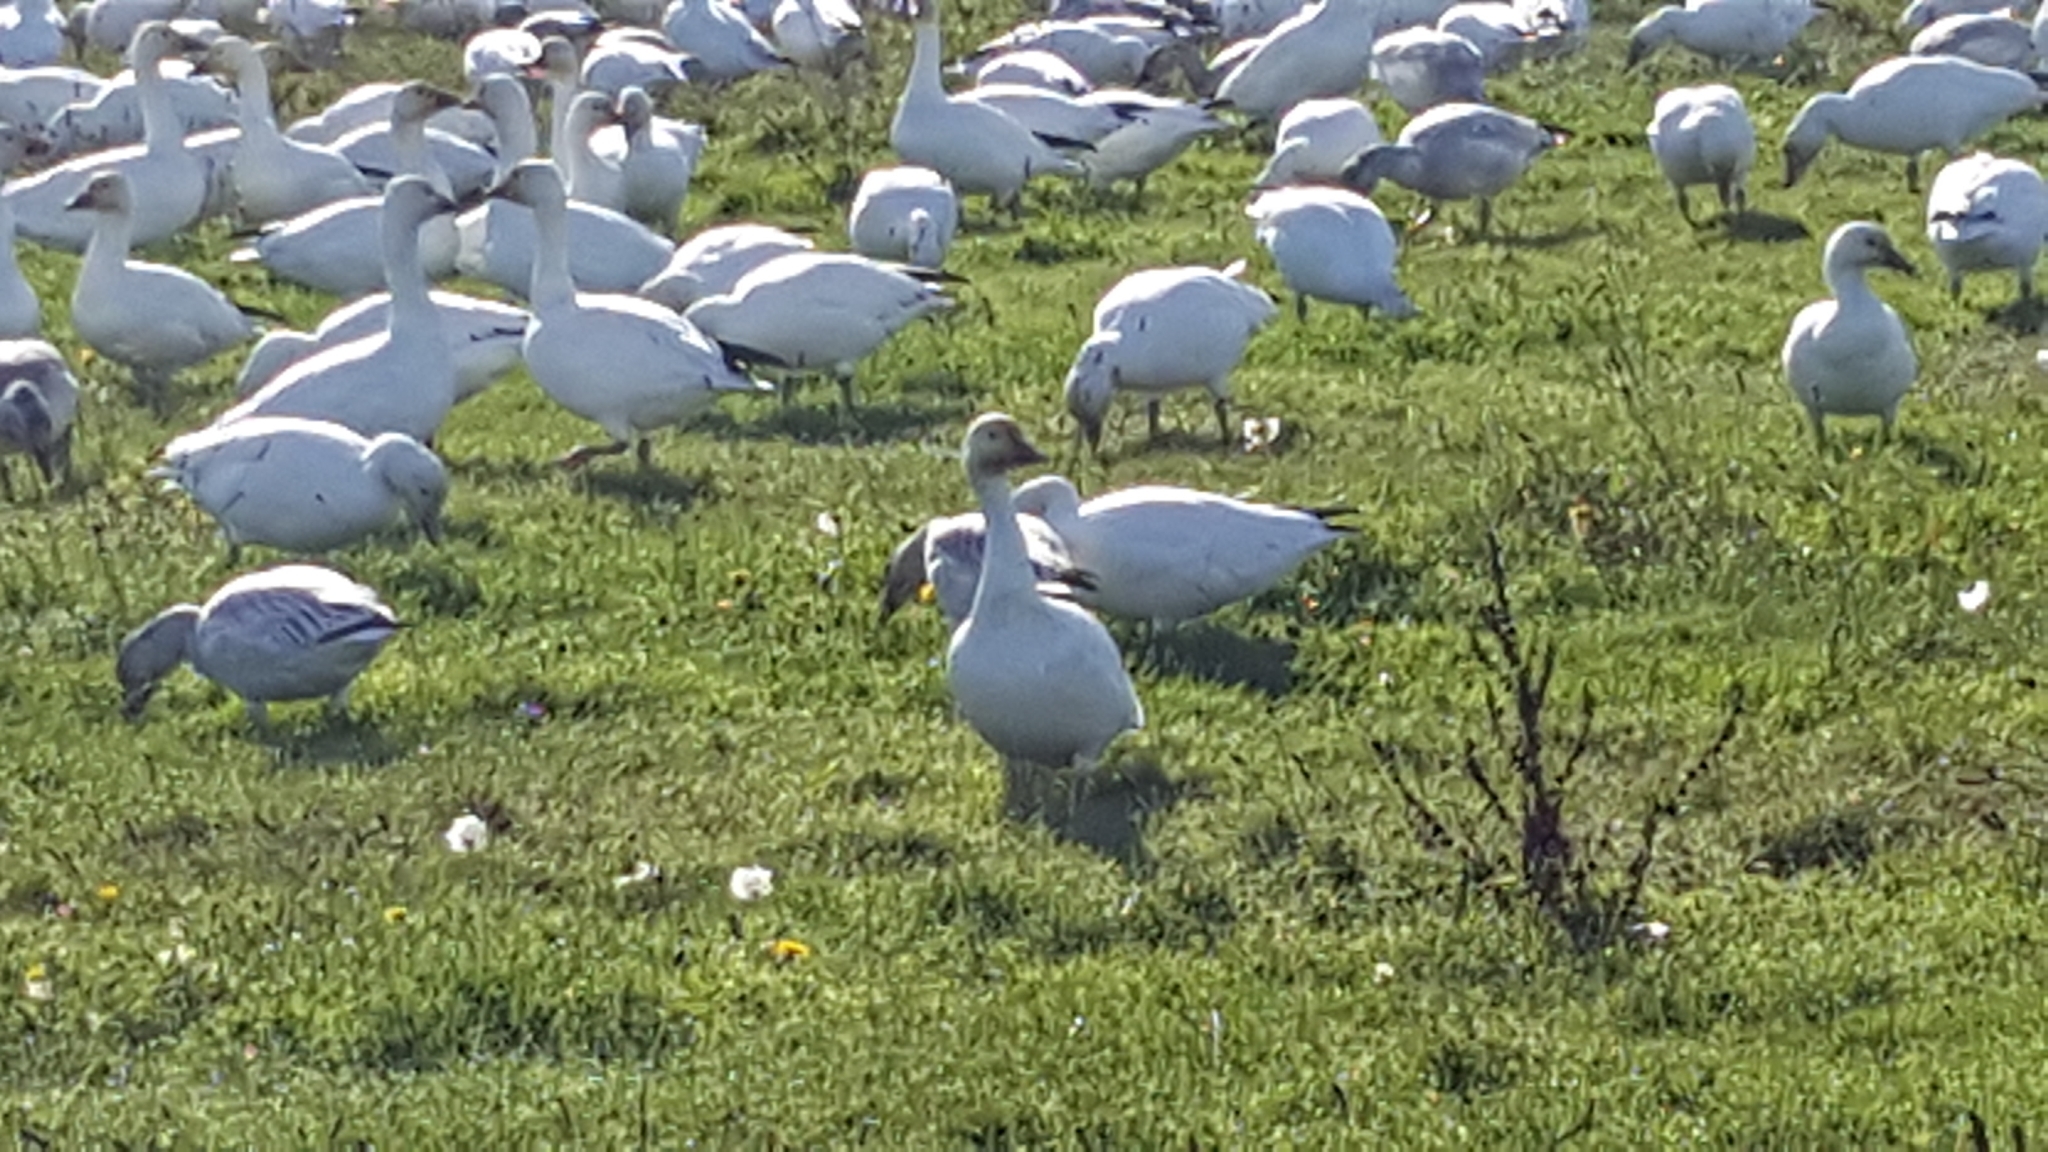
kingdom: Animalia
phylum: Chordata
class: Aves
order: Anseriformes
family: Anatidae
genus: Anser
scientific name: Anser caerulescens
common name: Snow goose
